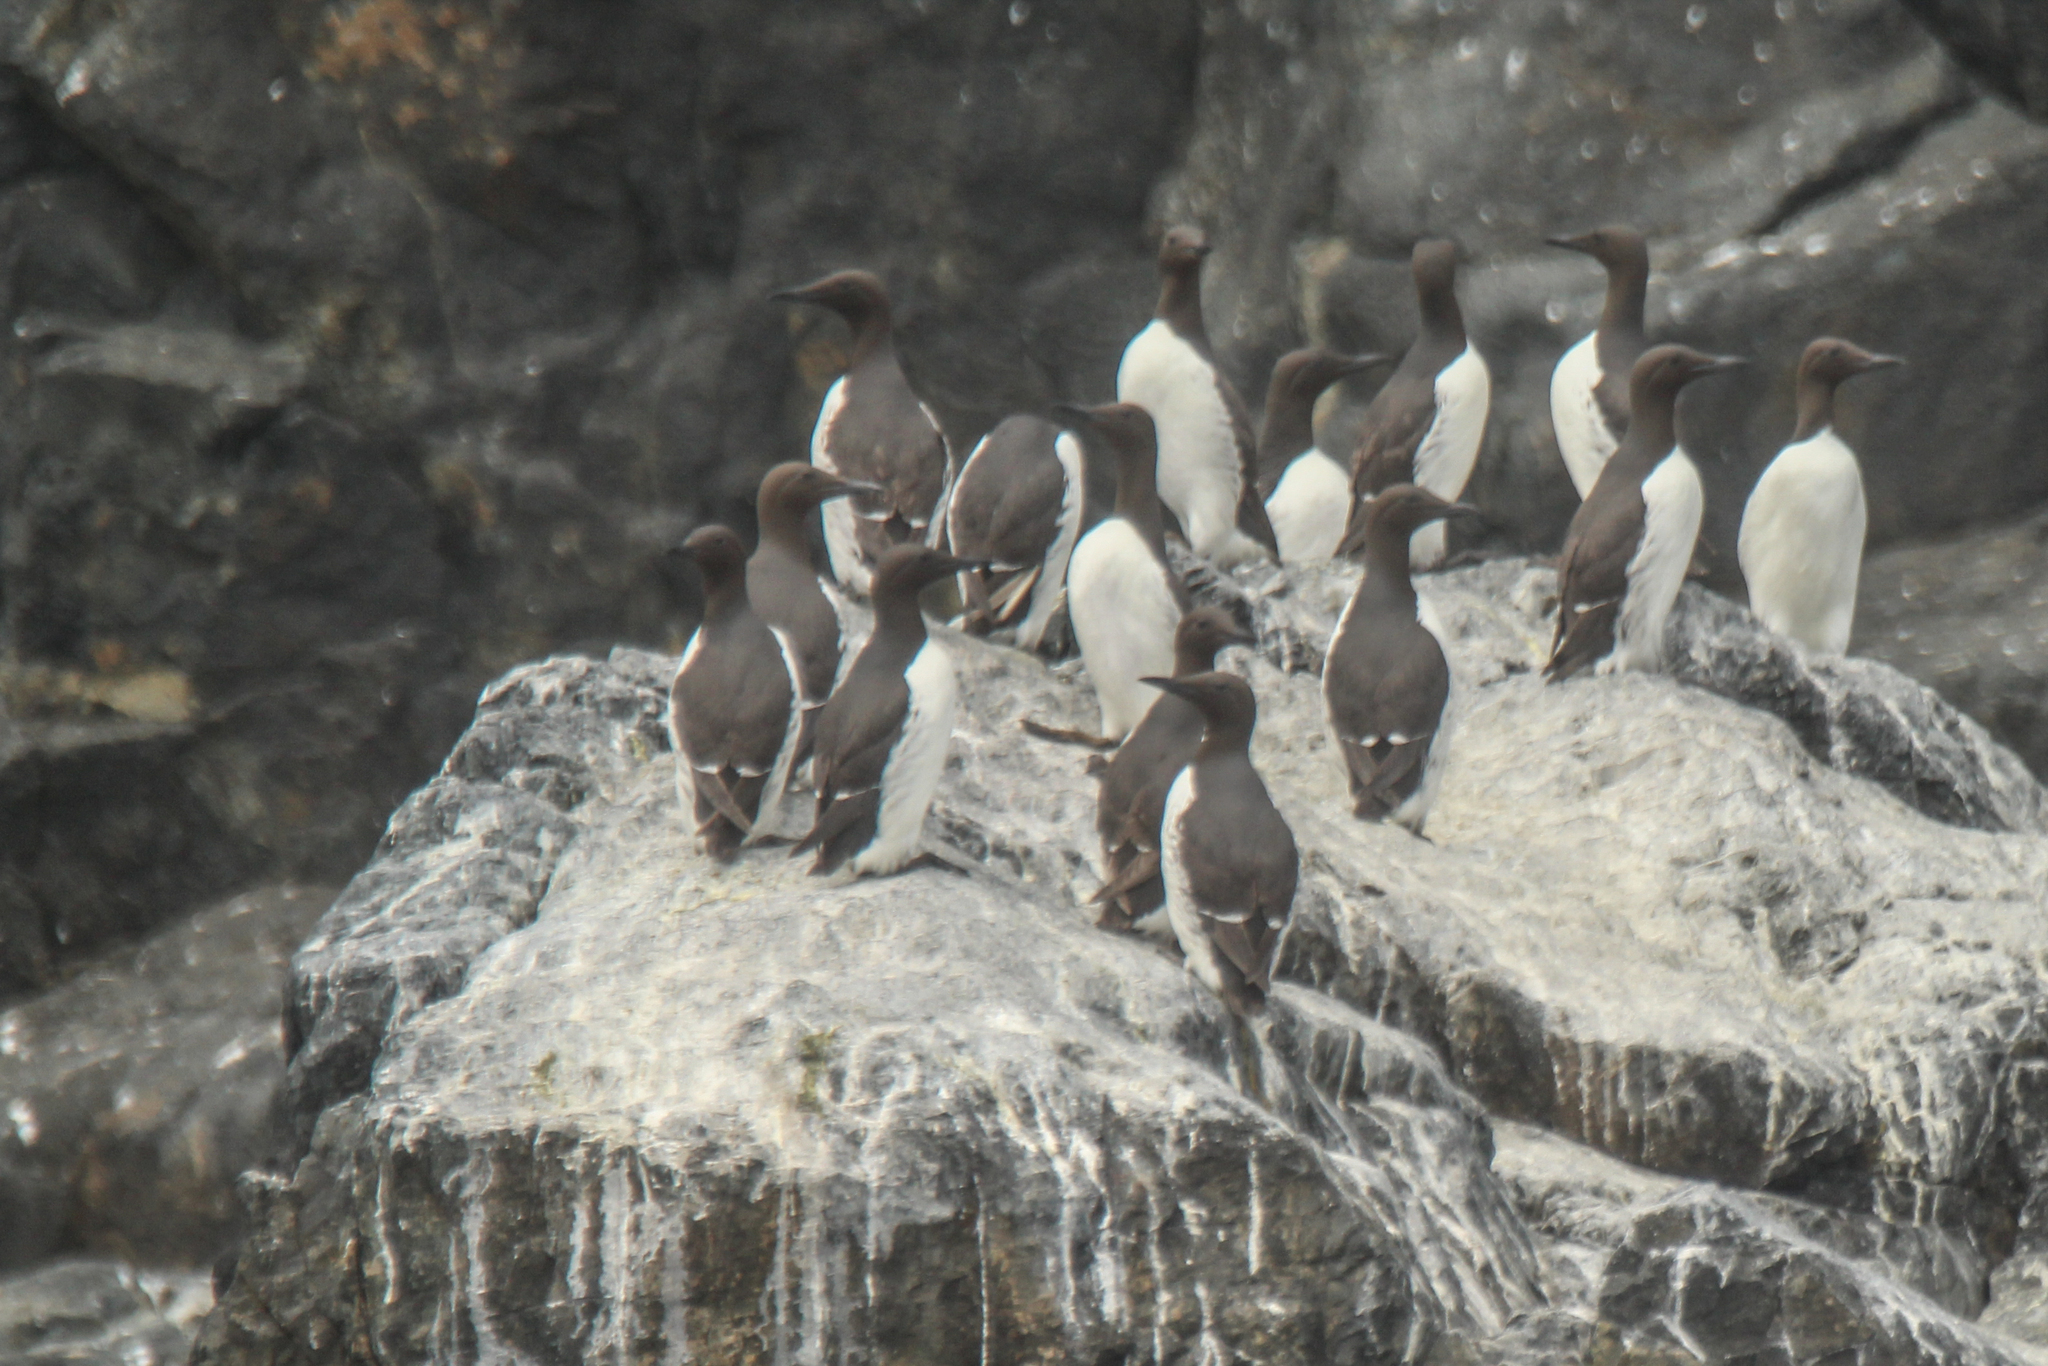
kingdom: Animalia
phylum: Chordata
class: Aves
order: Charadriiformes
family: Alcidae
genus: Uria
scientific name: Uria aalge
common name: Common murre
